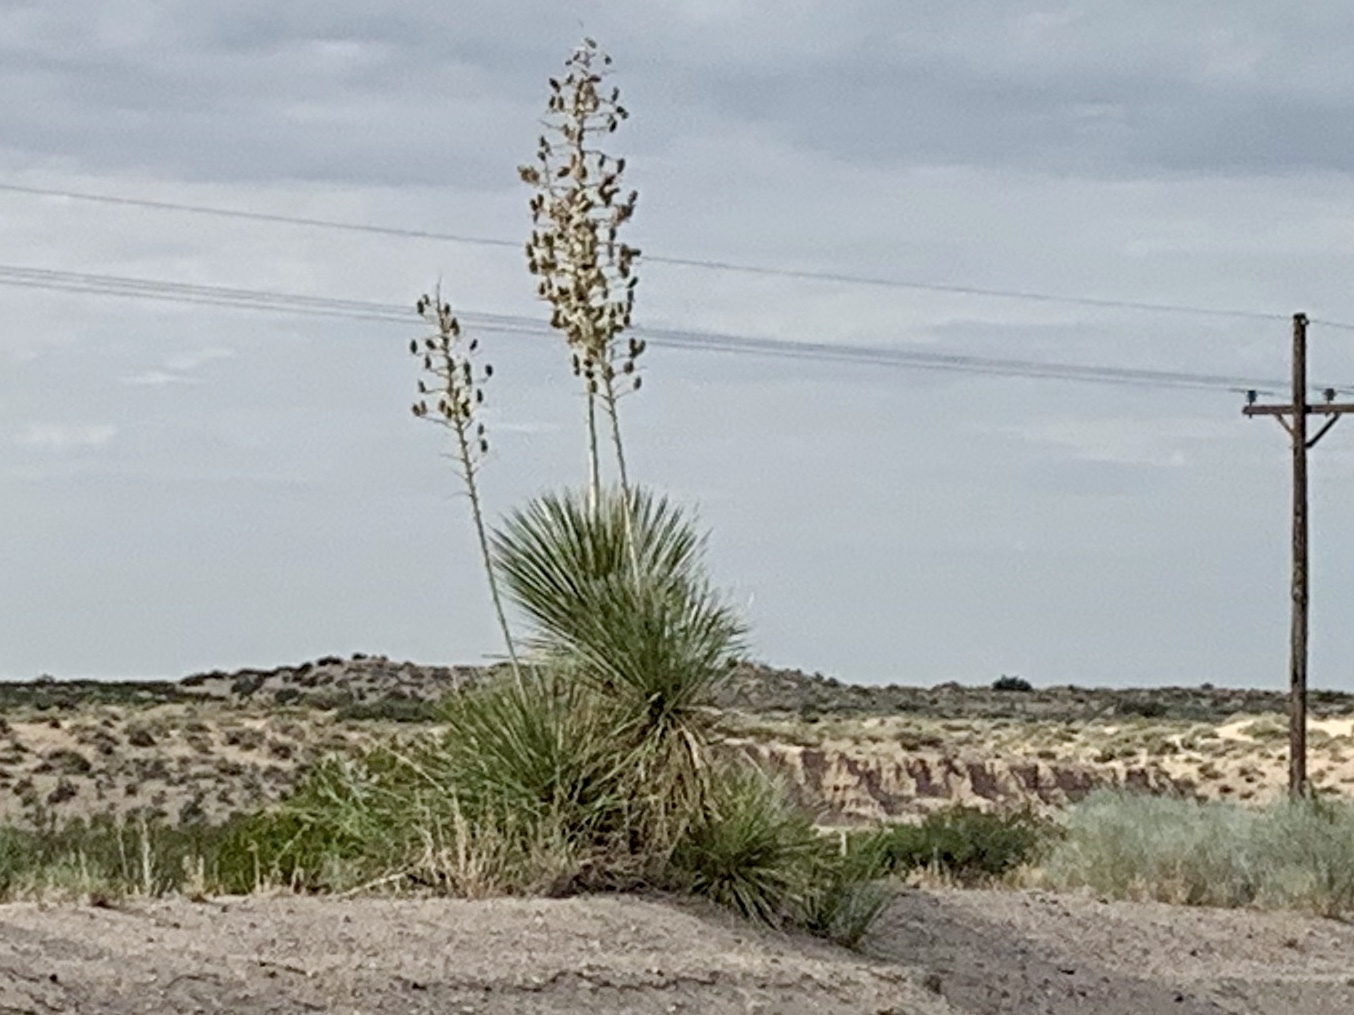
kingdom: Plantae
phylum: Tracheophyta
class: Liliopsida
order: Asparagales
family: Asparagaceae
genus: Yucca
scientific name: Yucca elata
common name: Palmella
